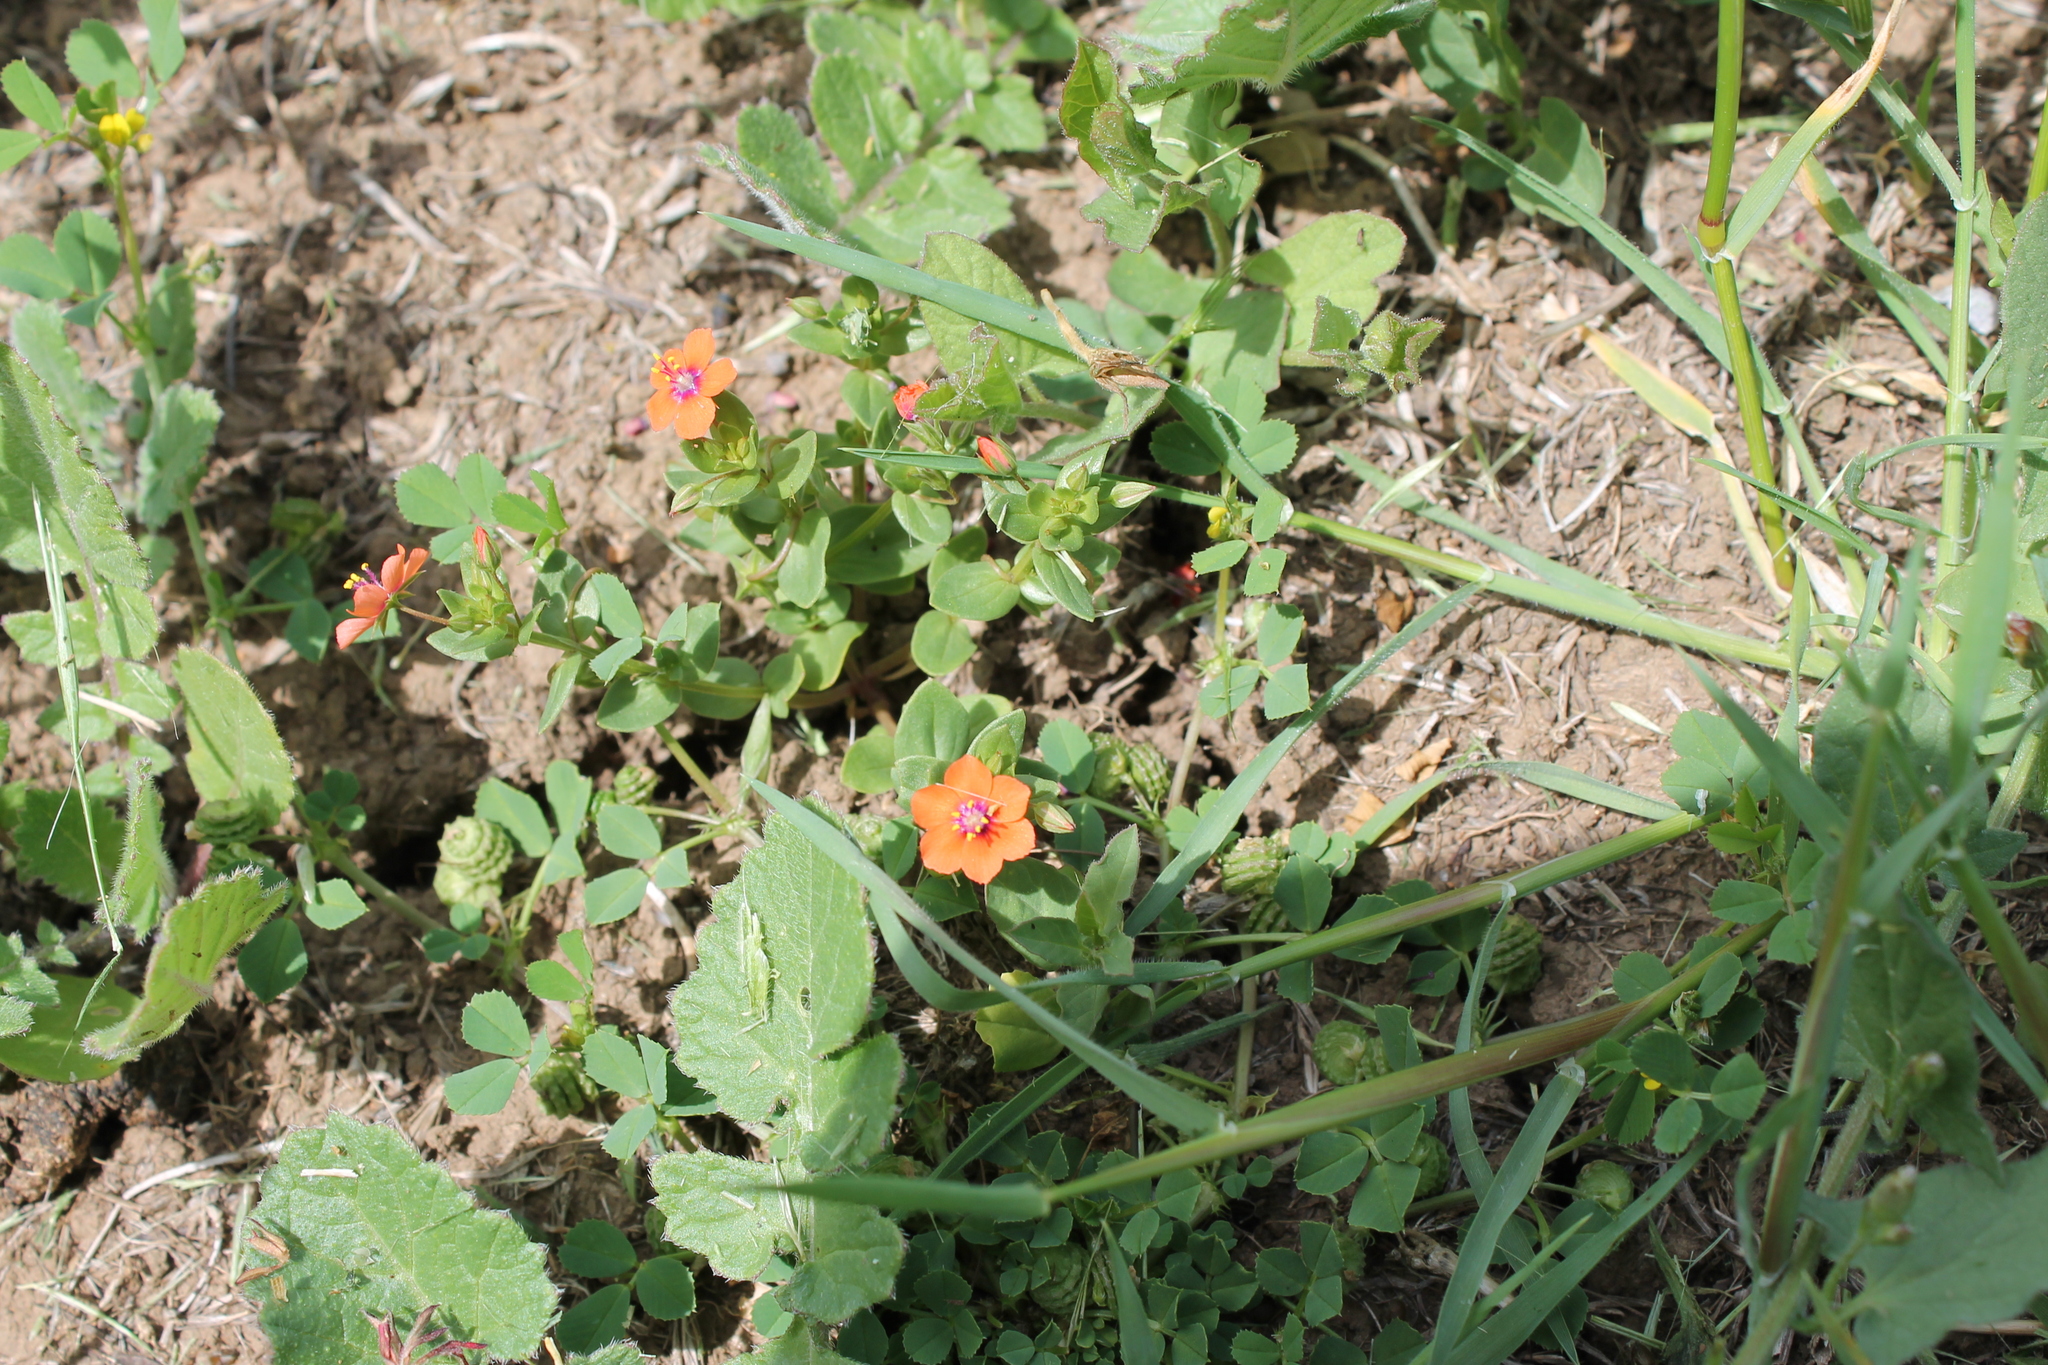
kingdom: Plantae
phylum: Tracheophyta
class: Magnoliopsida
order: Ericales
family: Primulaceae
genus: Lysimachia
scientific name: Lysimachia arvensis
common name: Scarlet pimpernel
